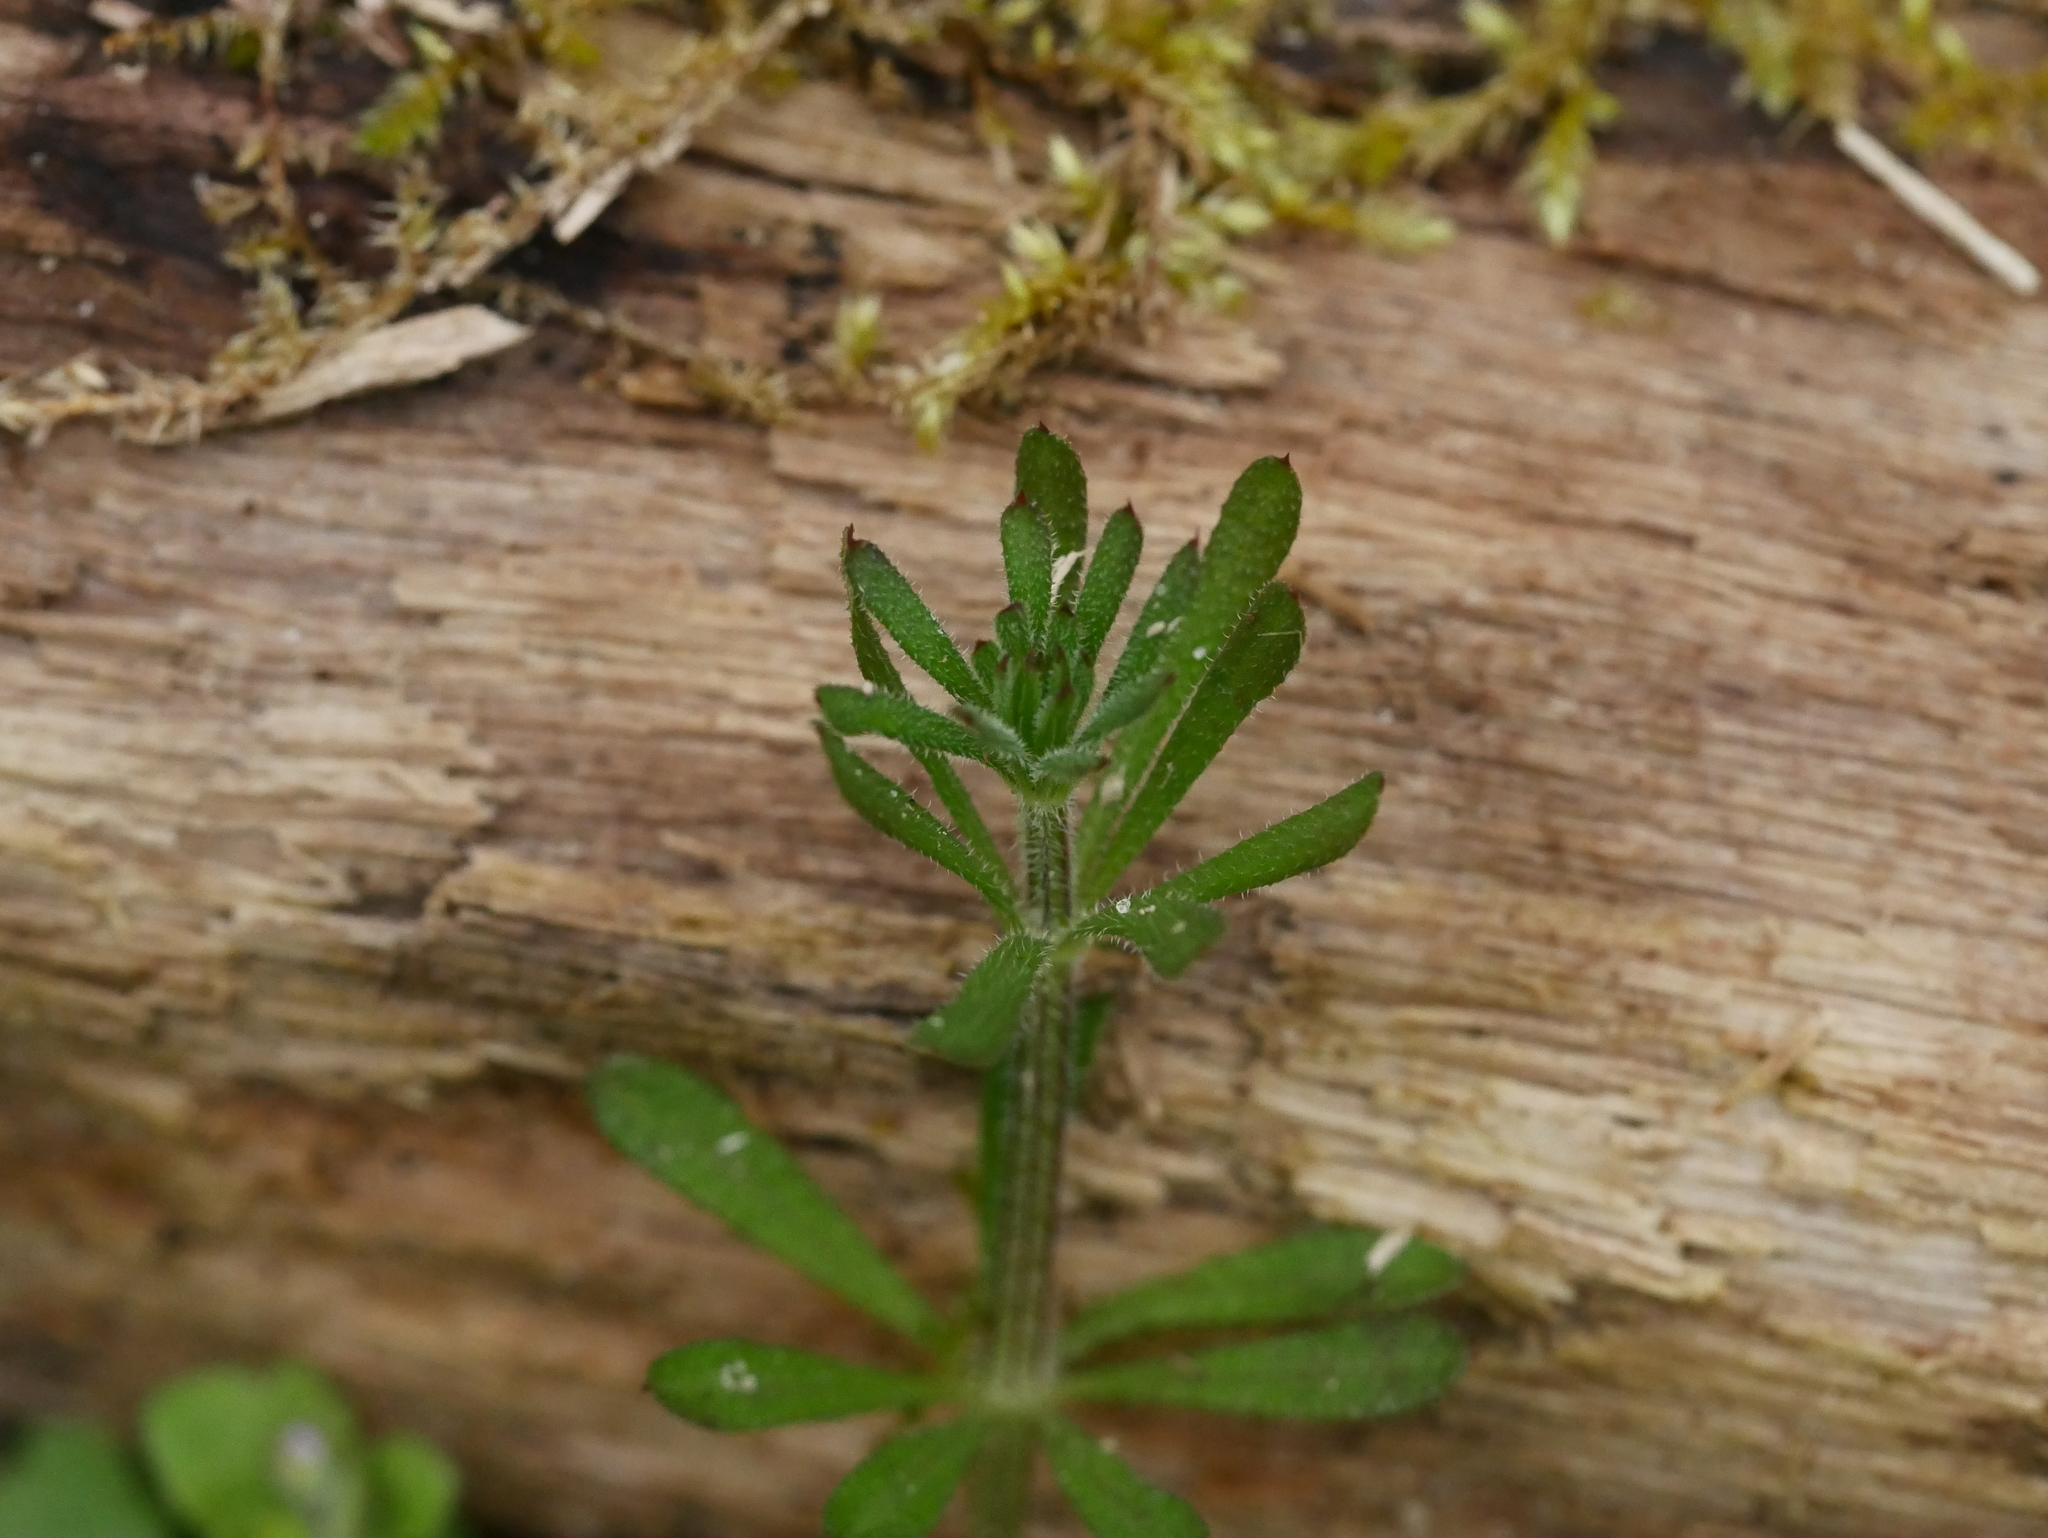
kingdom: Plantae
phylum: Tracheophyta
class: Magnoliopsida
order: Gentianales
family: Rubiaceae
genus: Galium
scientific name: Galium aparine
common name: Cleavers
